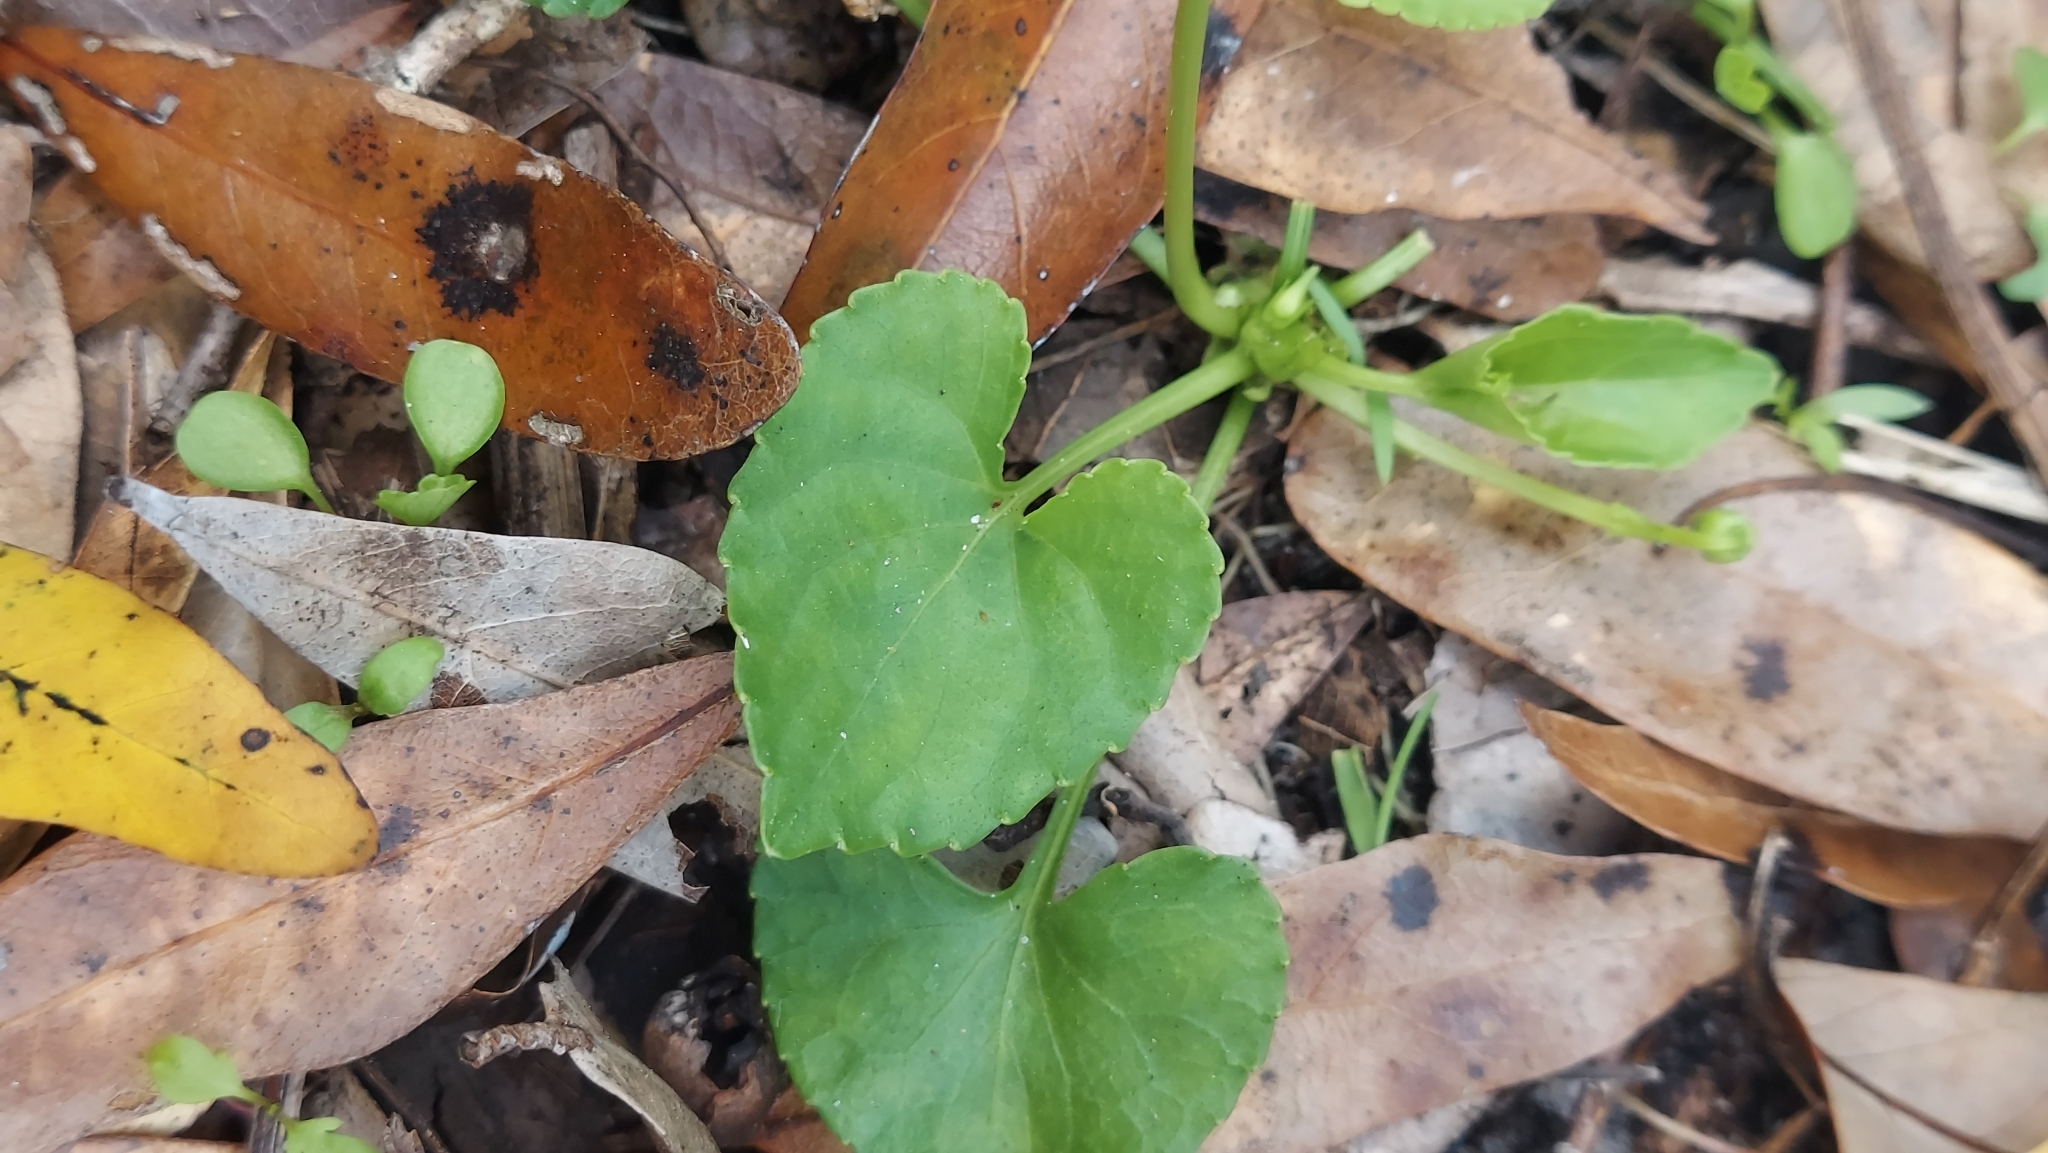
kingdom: Plantae
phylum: Tracheophyta
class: Magnoliopsida
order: Malpighiales
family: Violaceae
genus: Viola
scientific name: Viola floridana
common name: Florida violet
